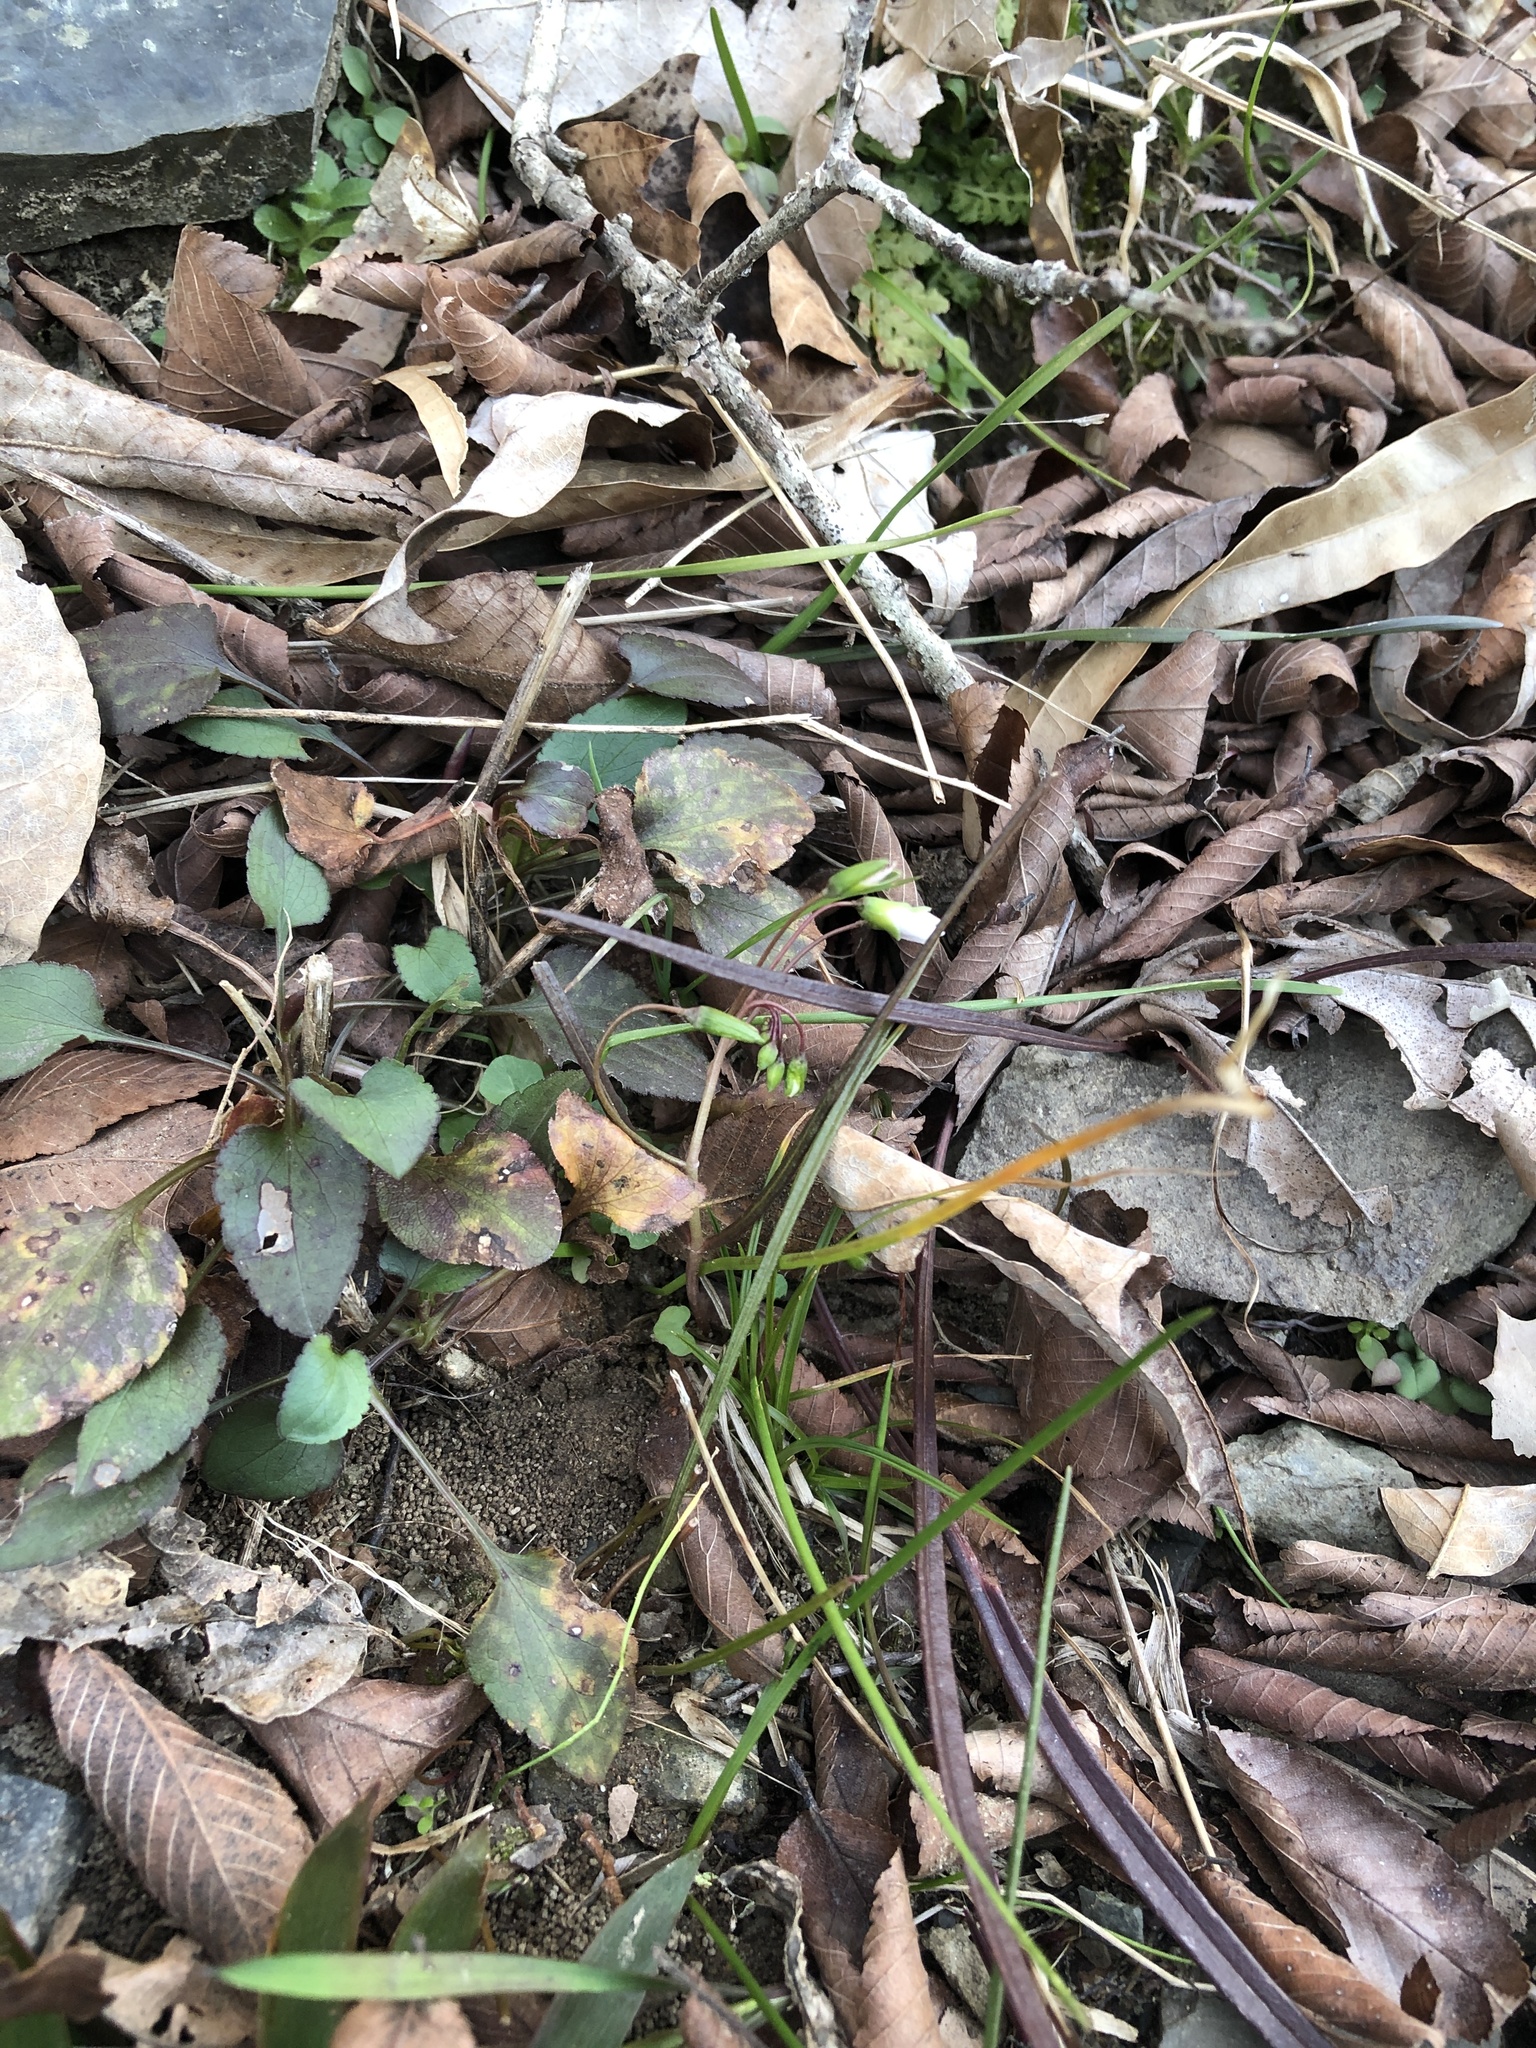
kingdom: Plantae
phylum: Tracheophyta
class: Magnoliopsida
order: Caryophyllales
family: Montiaceae
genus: Claytonia
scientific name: Claytonia virginica
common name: Virginia springbeauty
